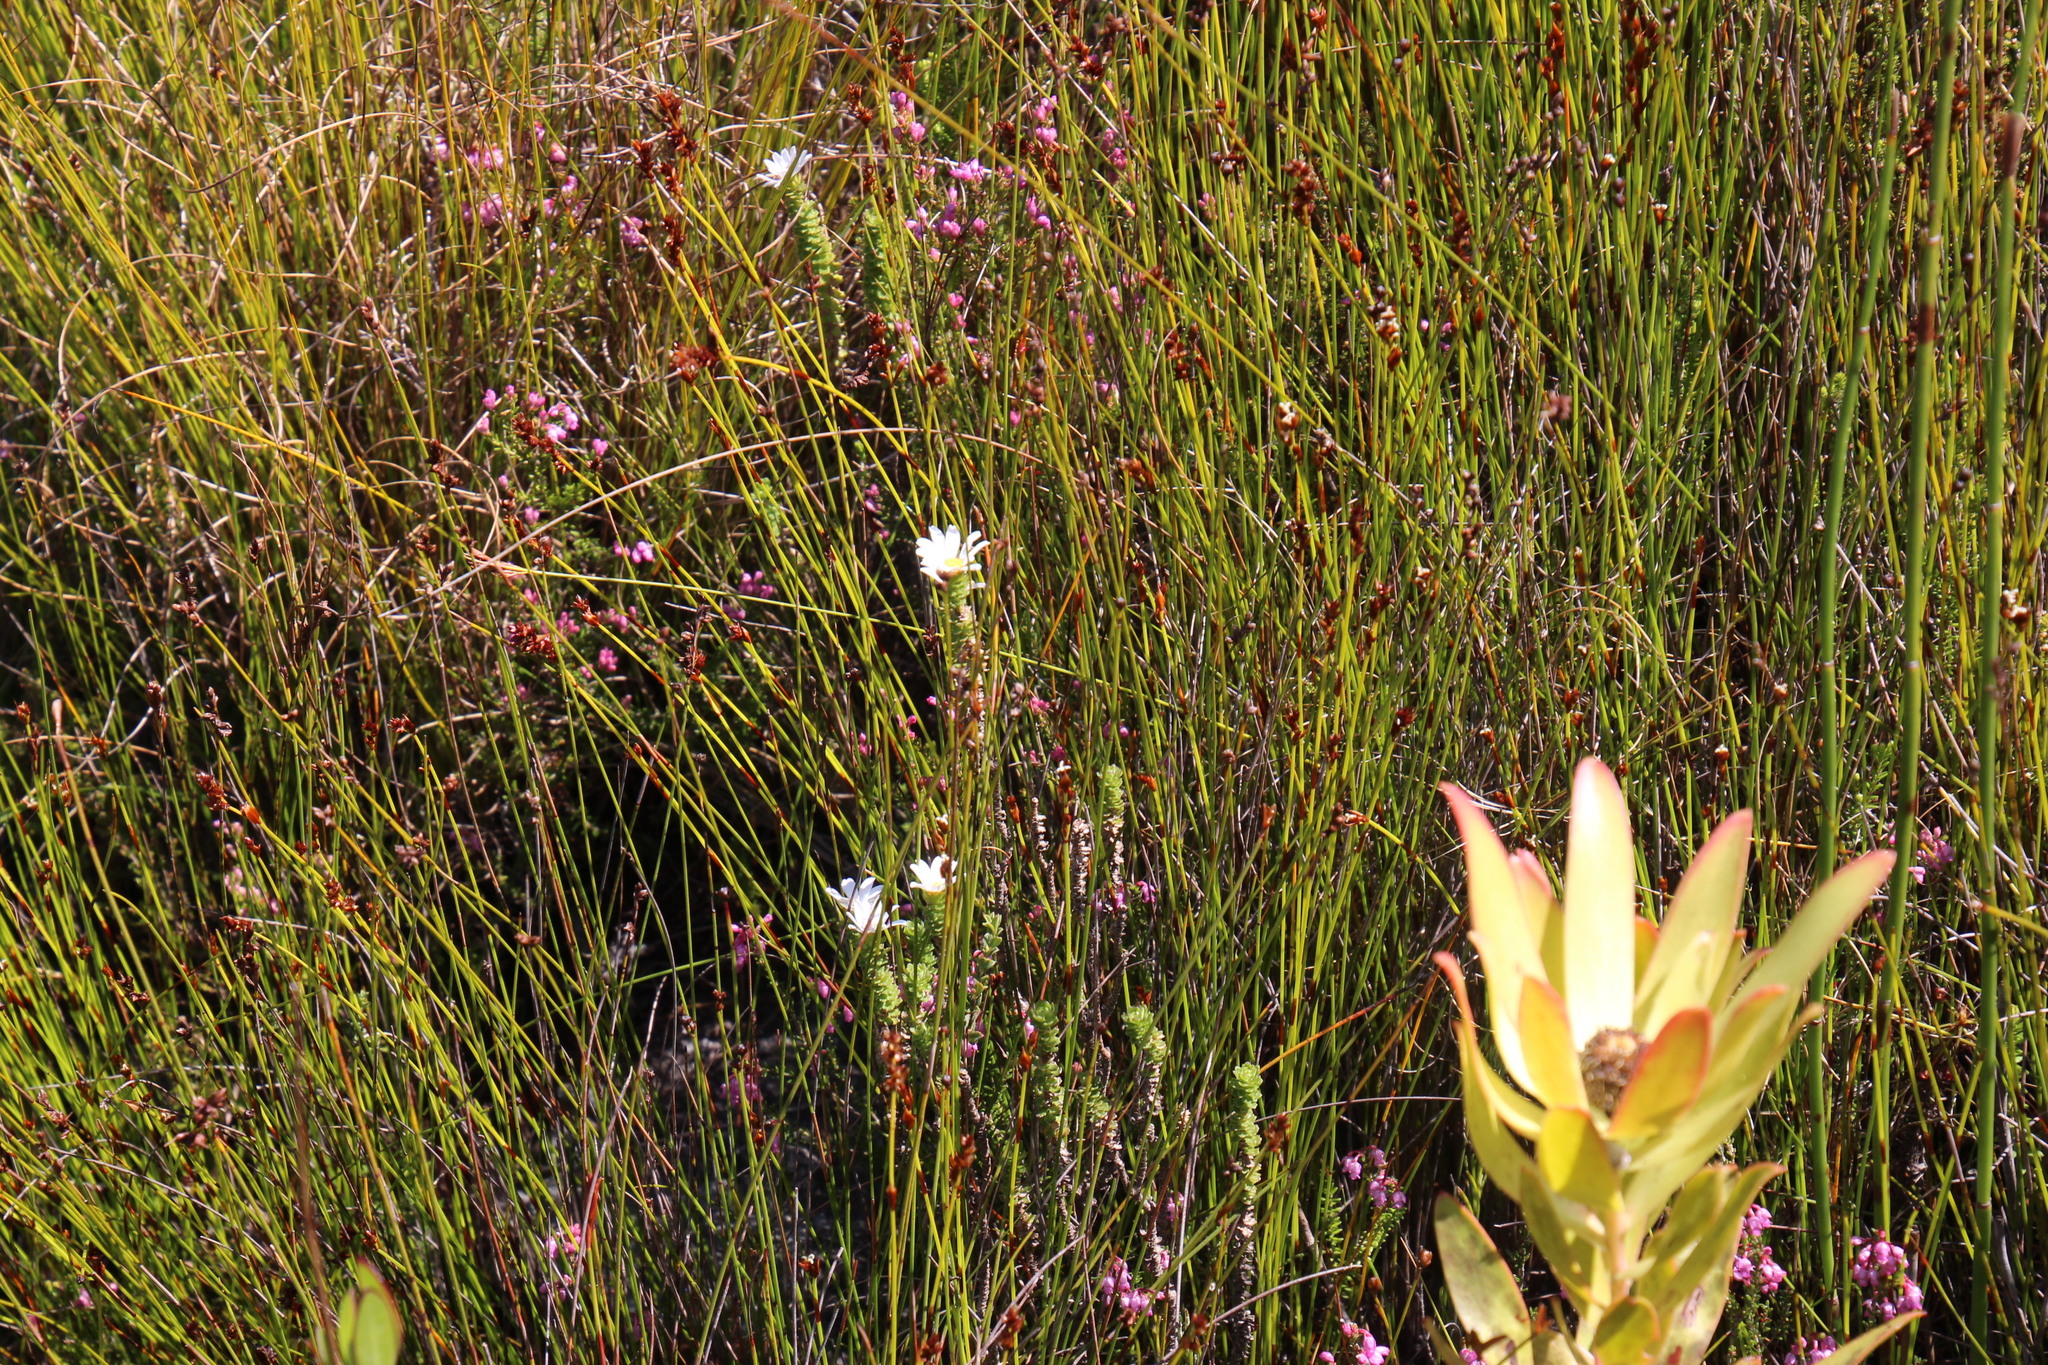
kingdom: Plantae
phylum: Tracheophyta
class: Magnoliopsida
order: Asterales
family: Asteraceae
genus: Osmitopsis
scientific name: Osmitopsis parvifolia
